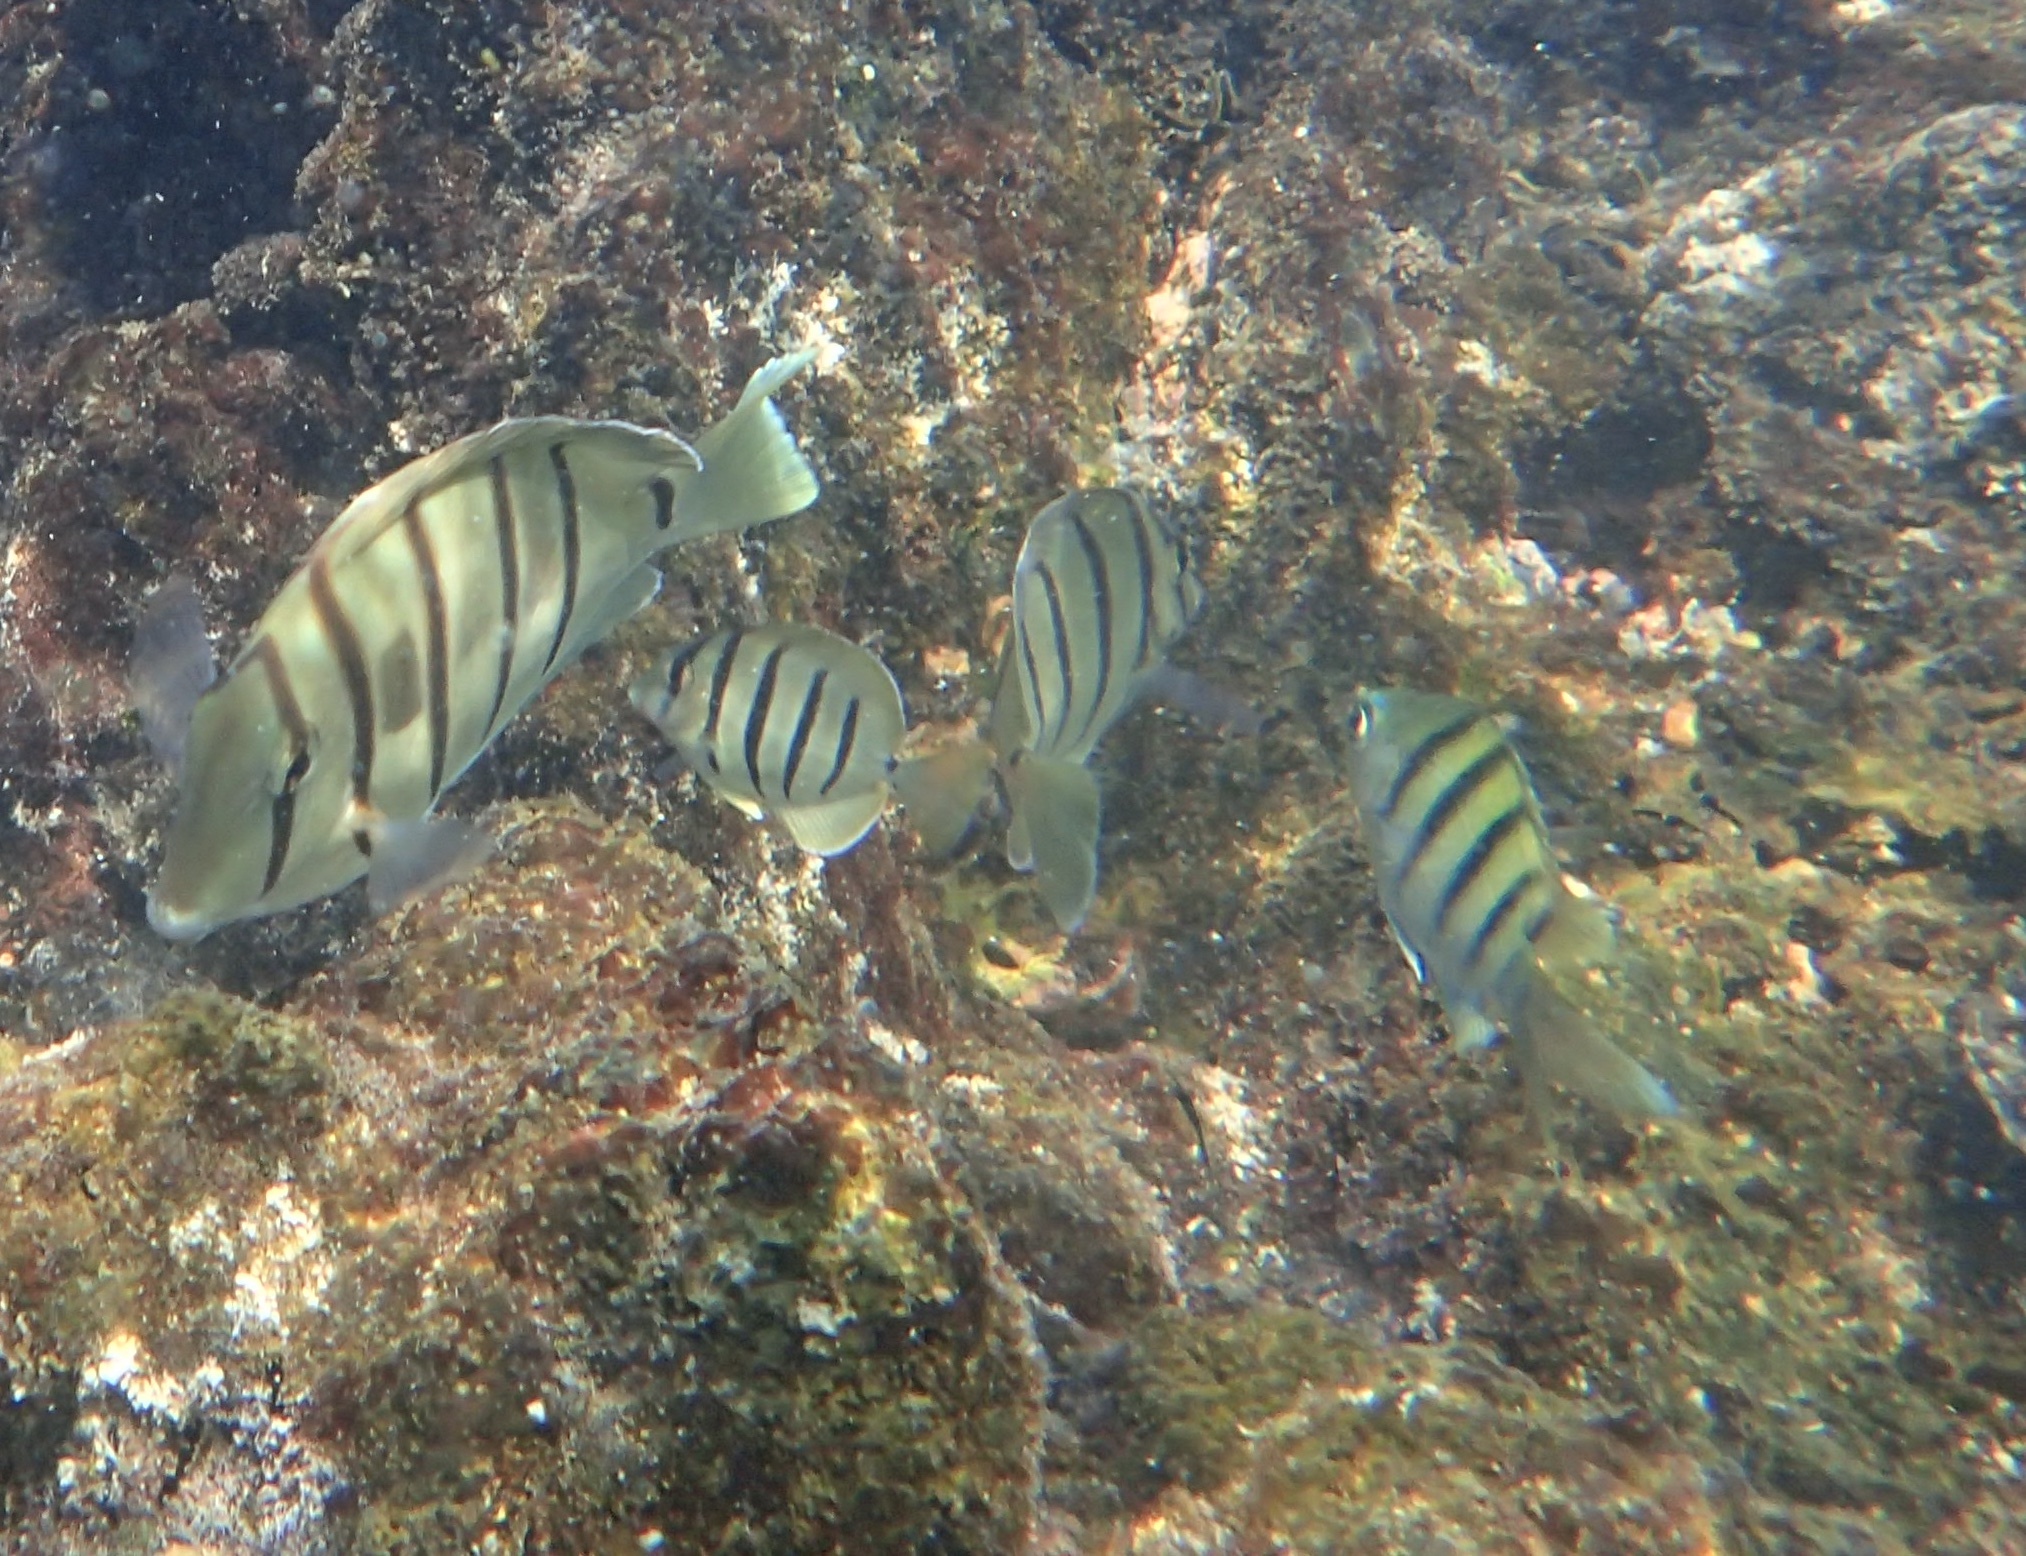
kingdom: Animalia
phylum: Chordata
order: Perciformes
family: Acanthuridae
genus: Acanthurus
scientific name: Acanthurus triostegus
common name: Convict surgeonfish
